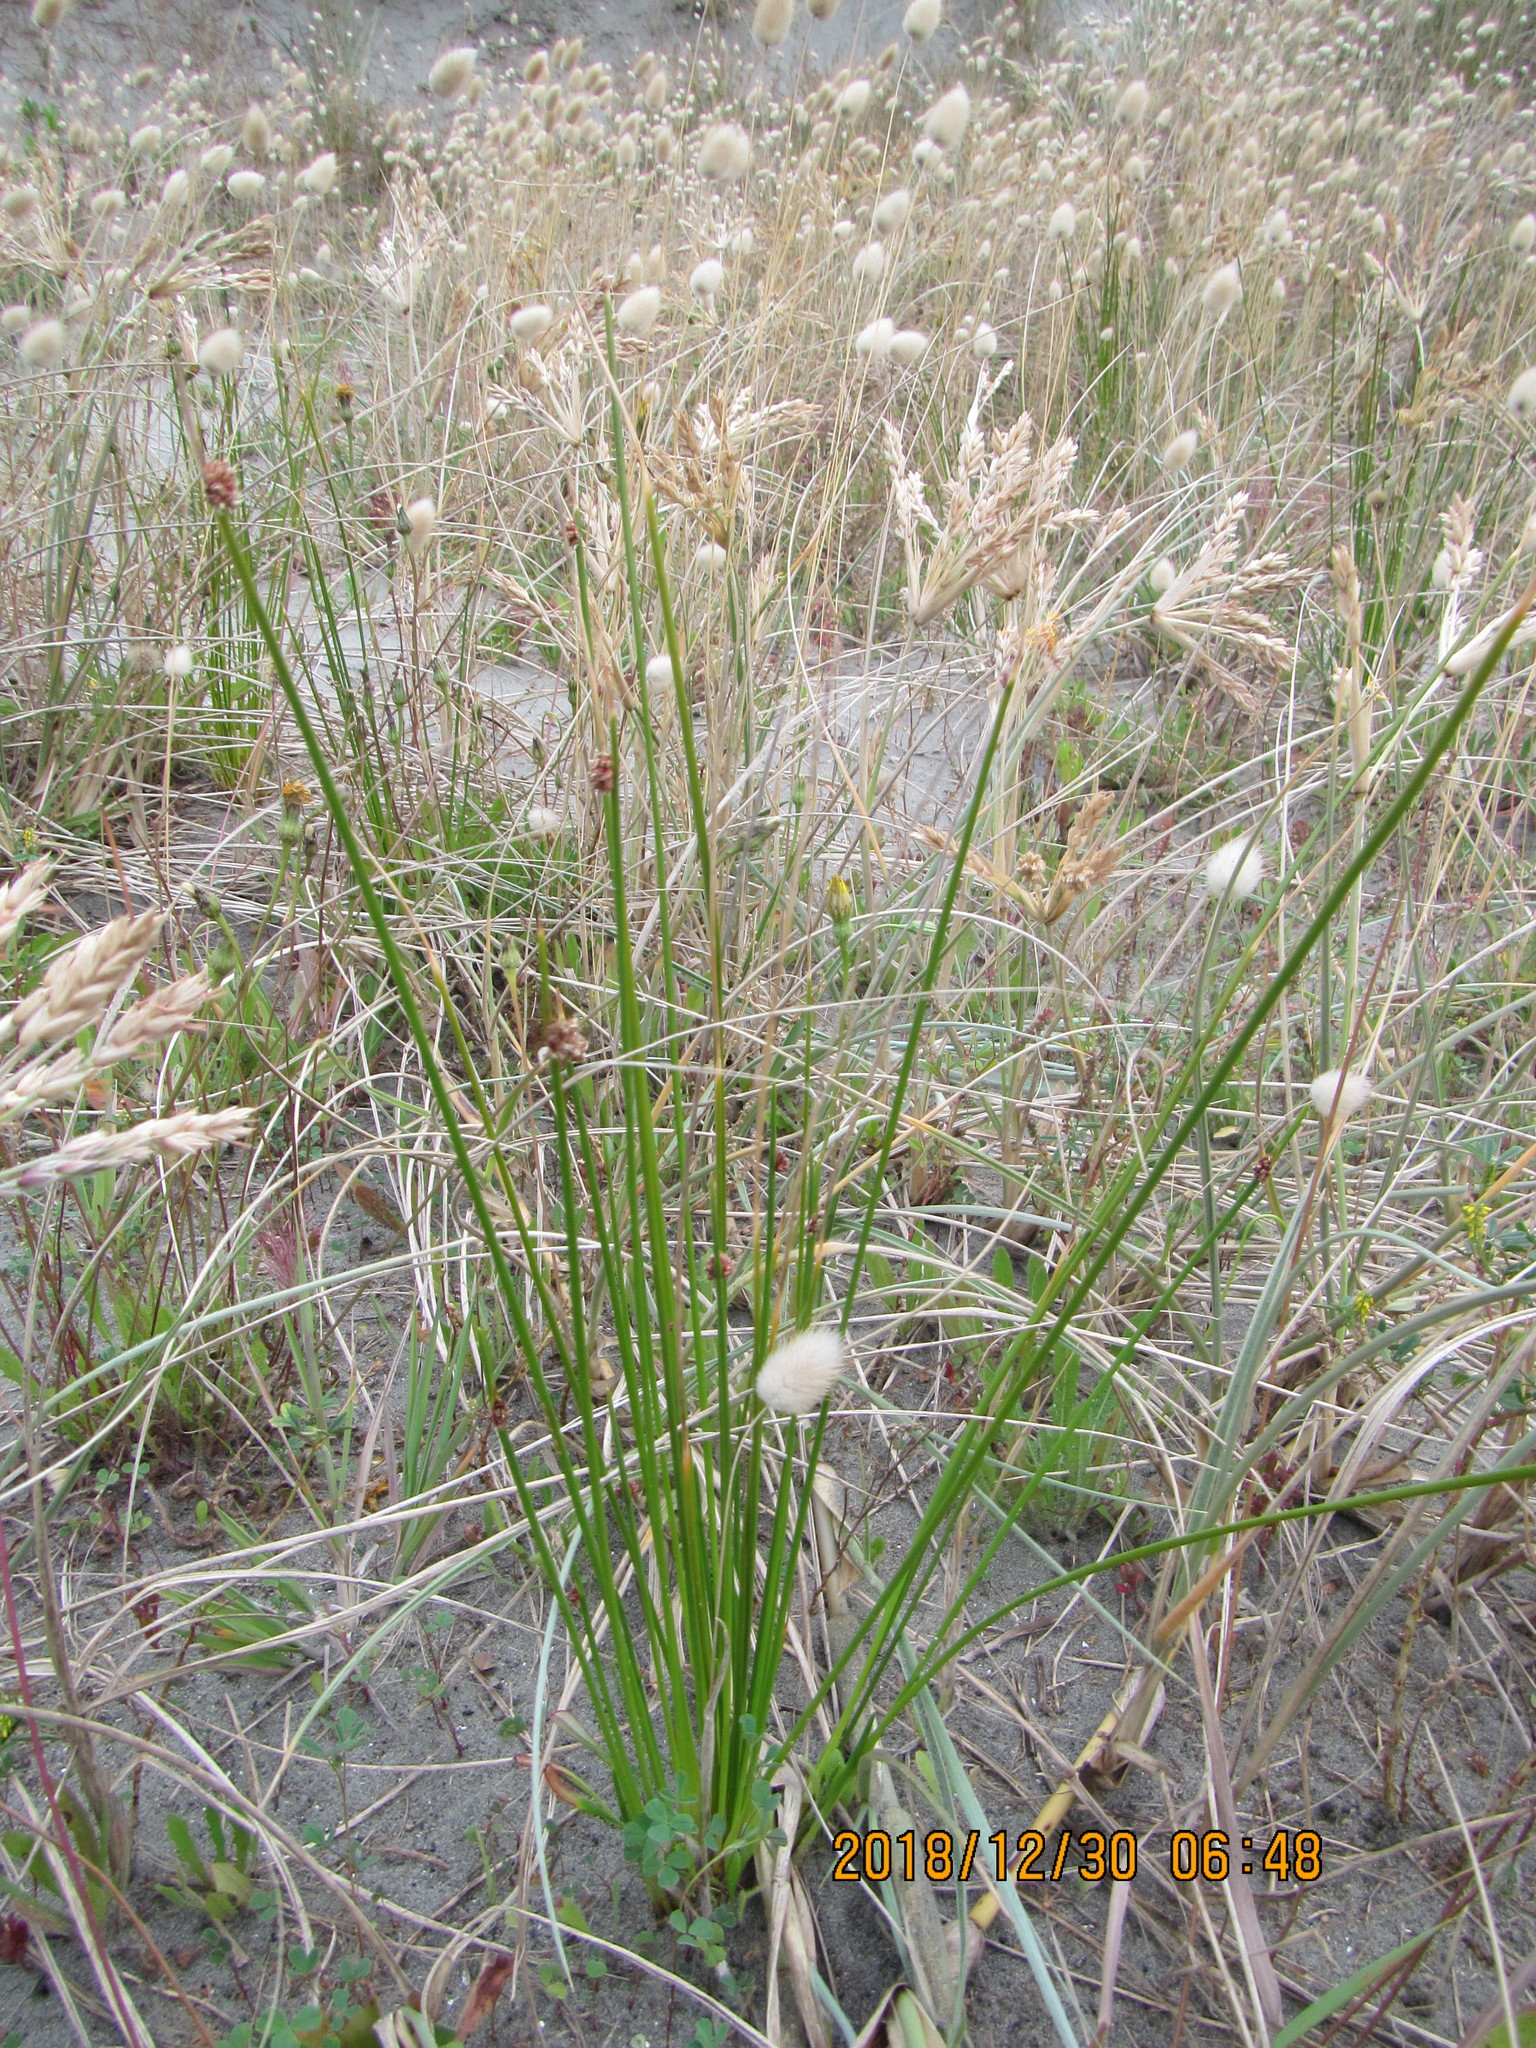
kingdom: Plantae
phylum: Tracheophyta
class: Liliopsida
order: Poales
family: Cyperaceae
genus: Ficinia
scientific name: Ficinia nodosa
